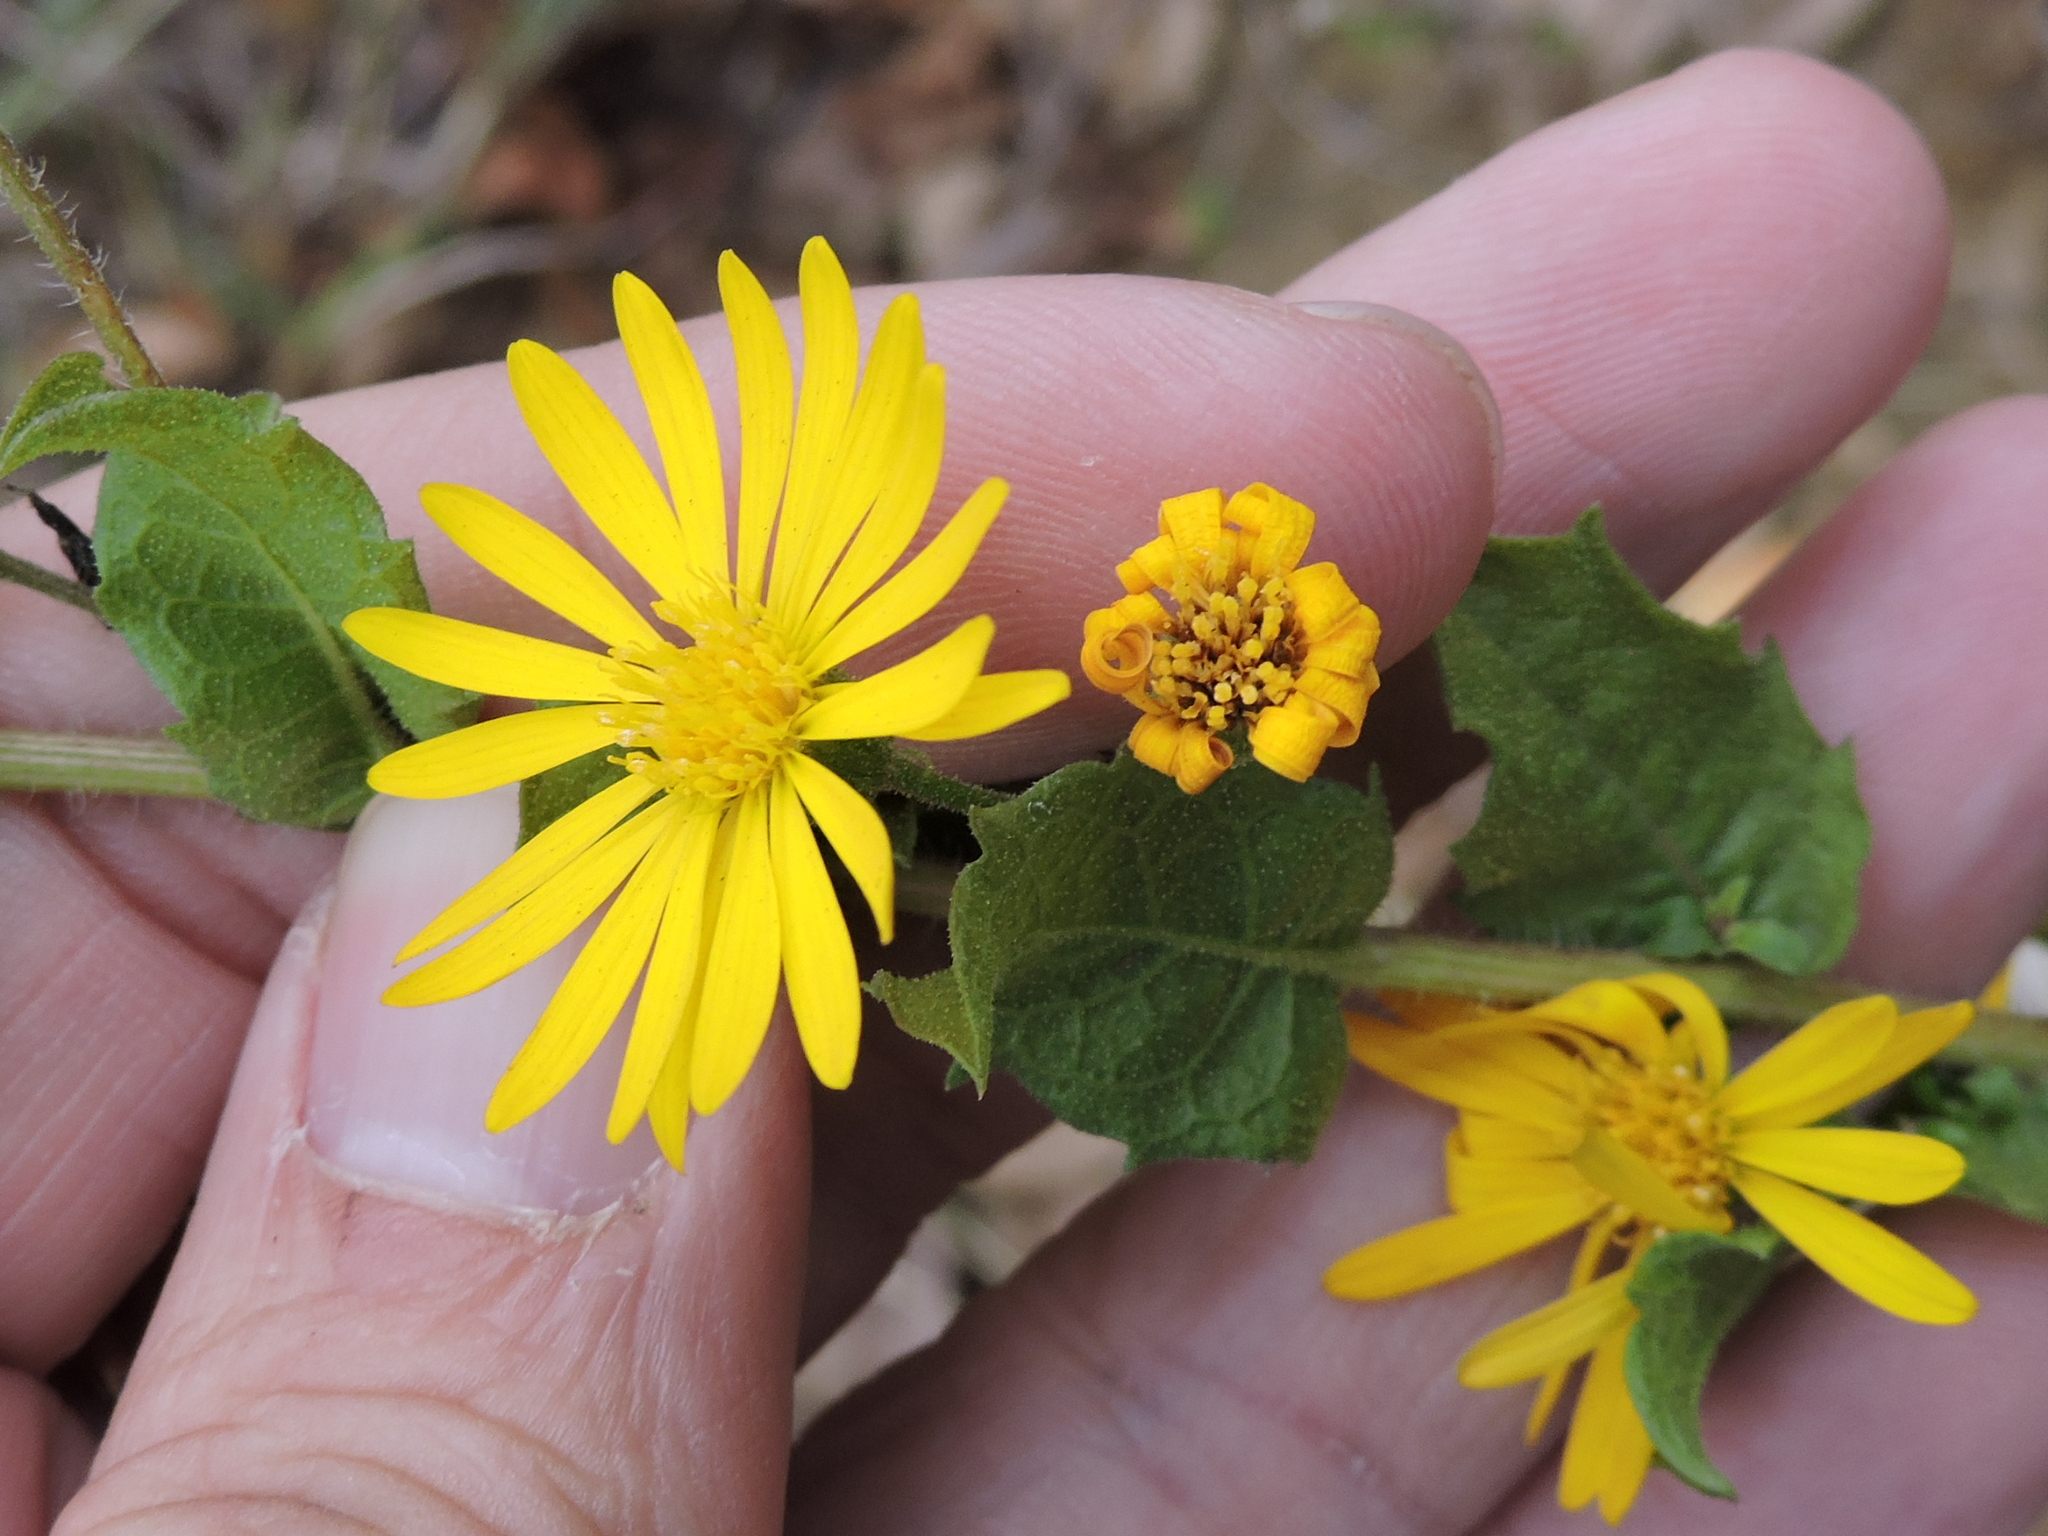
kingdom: Plantae
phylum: Tracheophyta
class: Magnoliopsida
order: Asterales
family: Asteraceae
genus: Heterotheca
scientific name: Heterotheca subaxillaris
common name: Camphorweed
